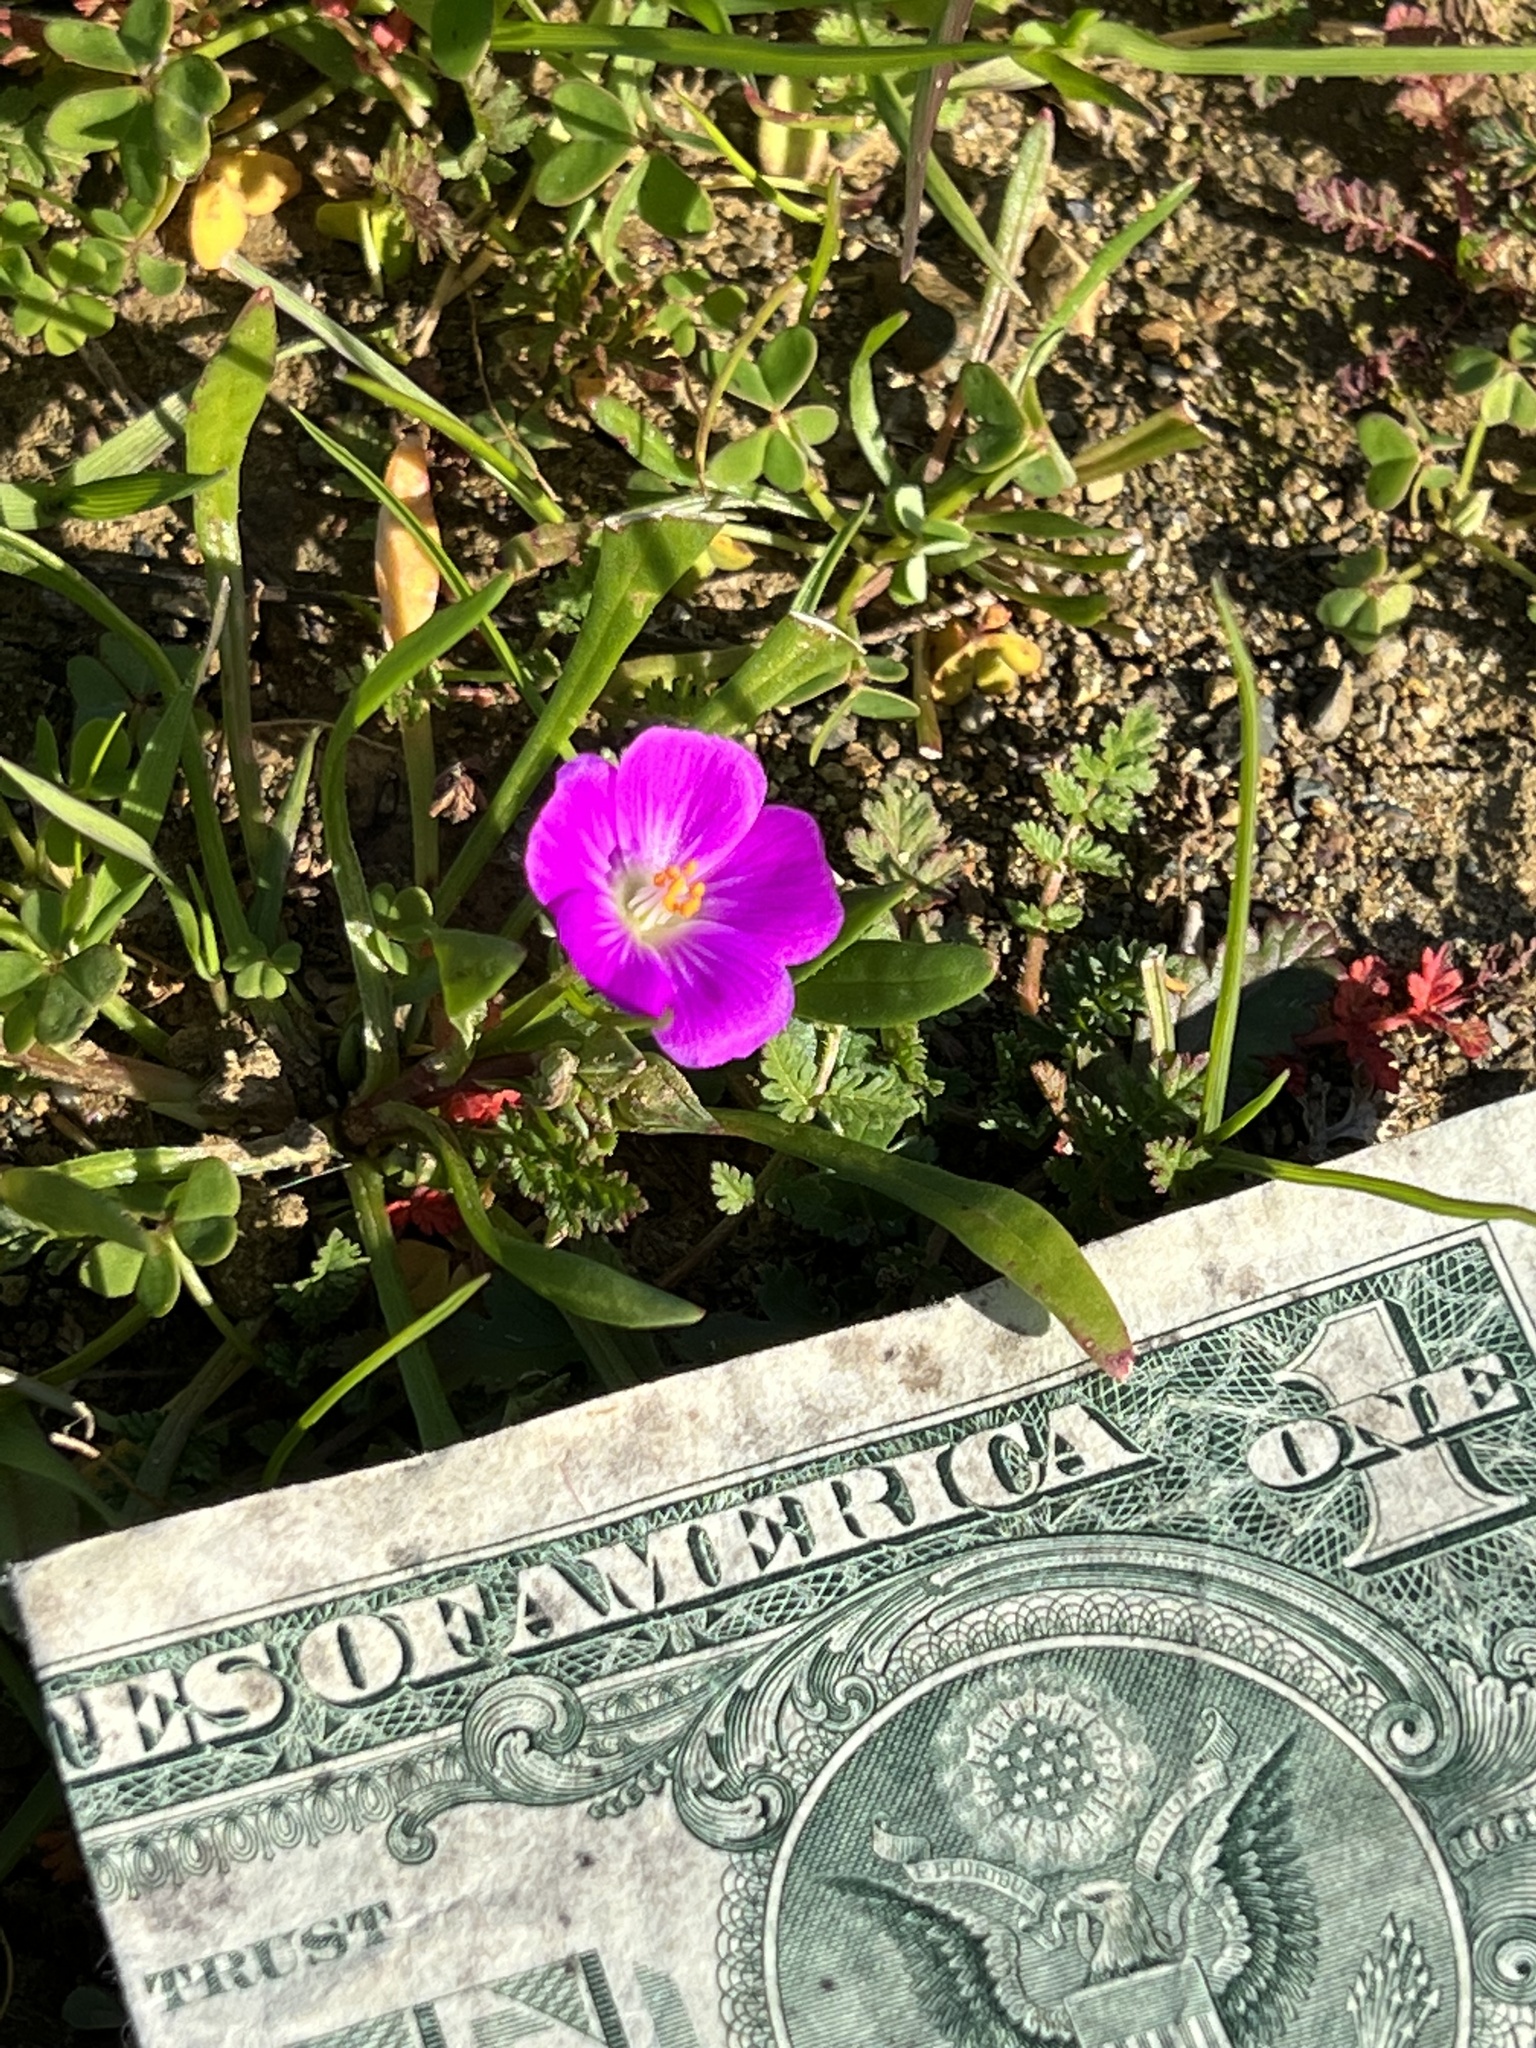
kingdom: Plantae
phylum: Tracheophyta
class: Magnoliopsida
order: Caryophyllales
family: Montiaceae
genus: Calandrinia
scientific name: Calandrinia menziesii
